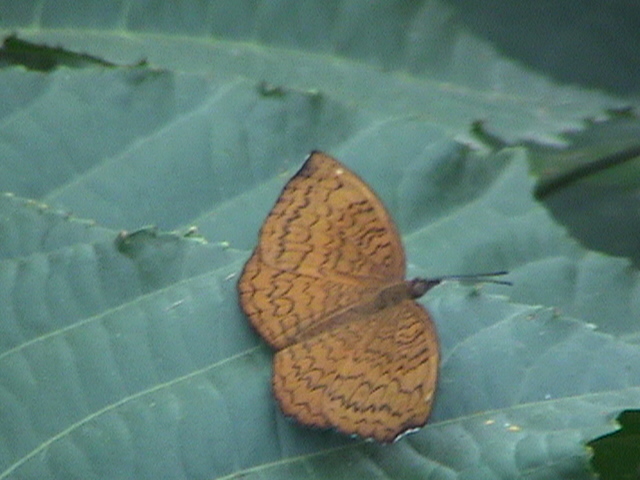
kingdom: Animalia
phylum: Arthropoda
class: Insecta
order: Lepidoptera
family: Nymphalidae
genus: Ariadne
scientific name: Ariadne merione
